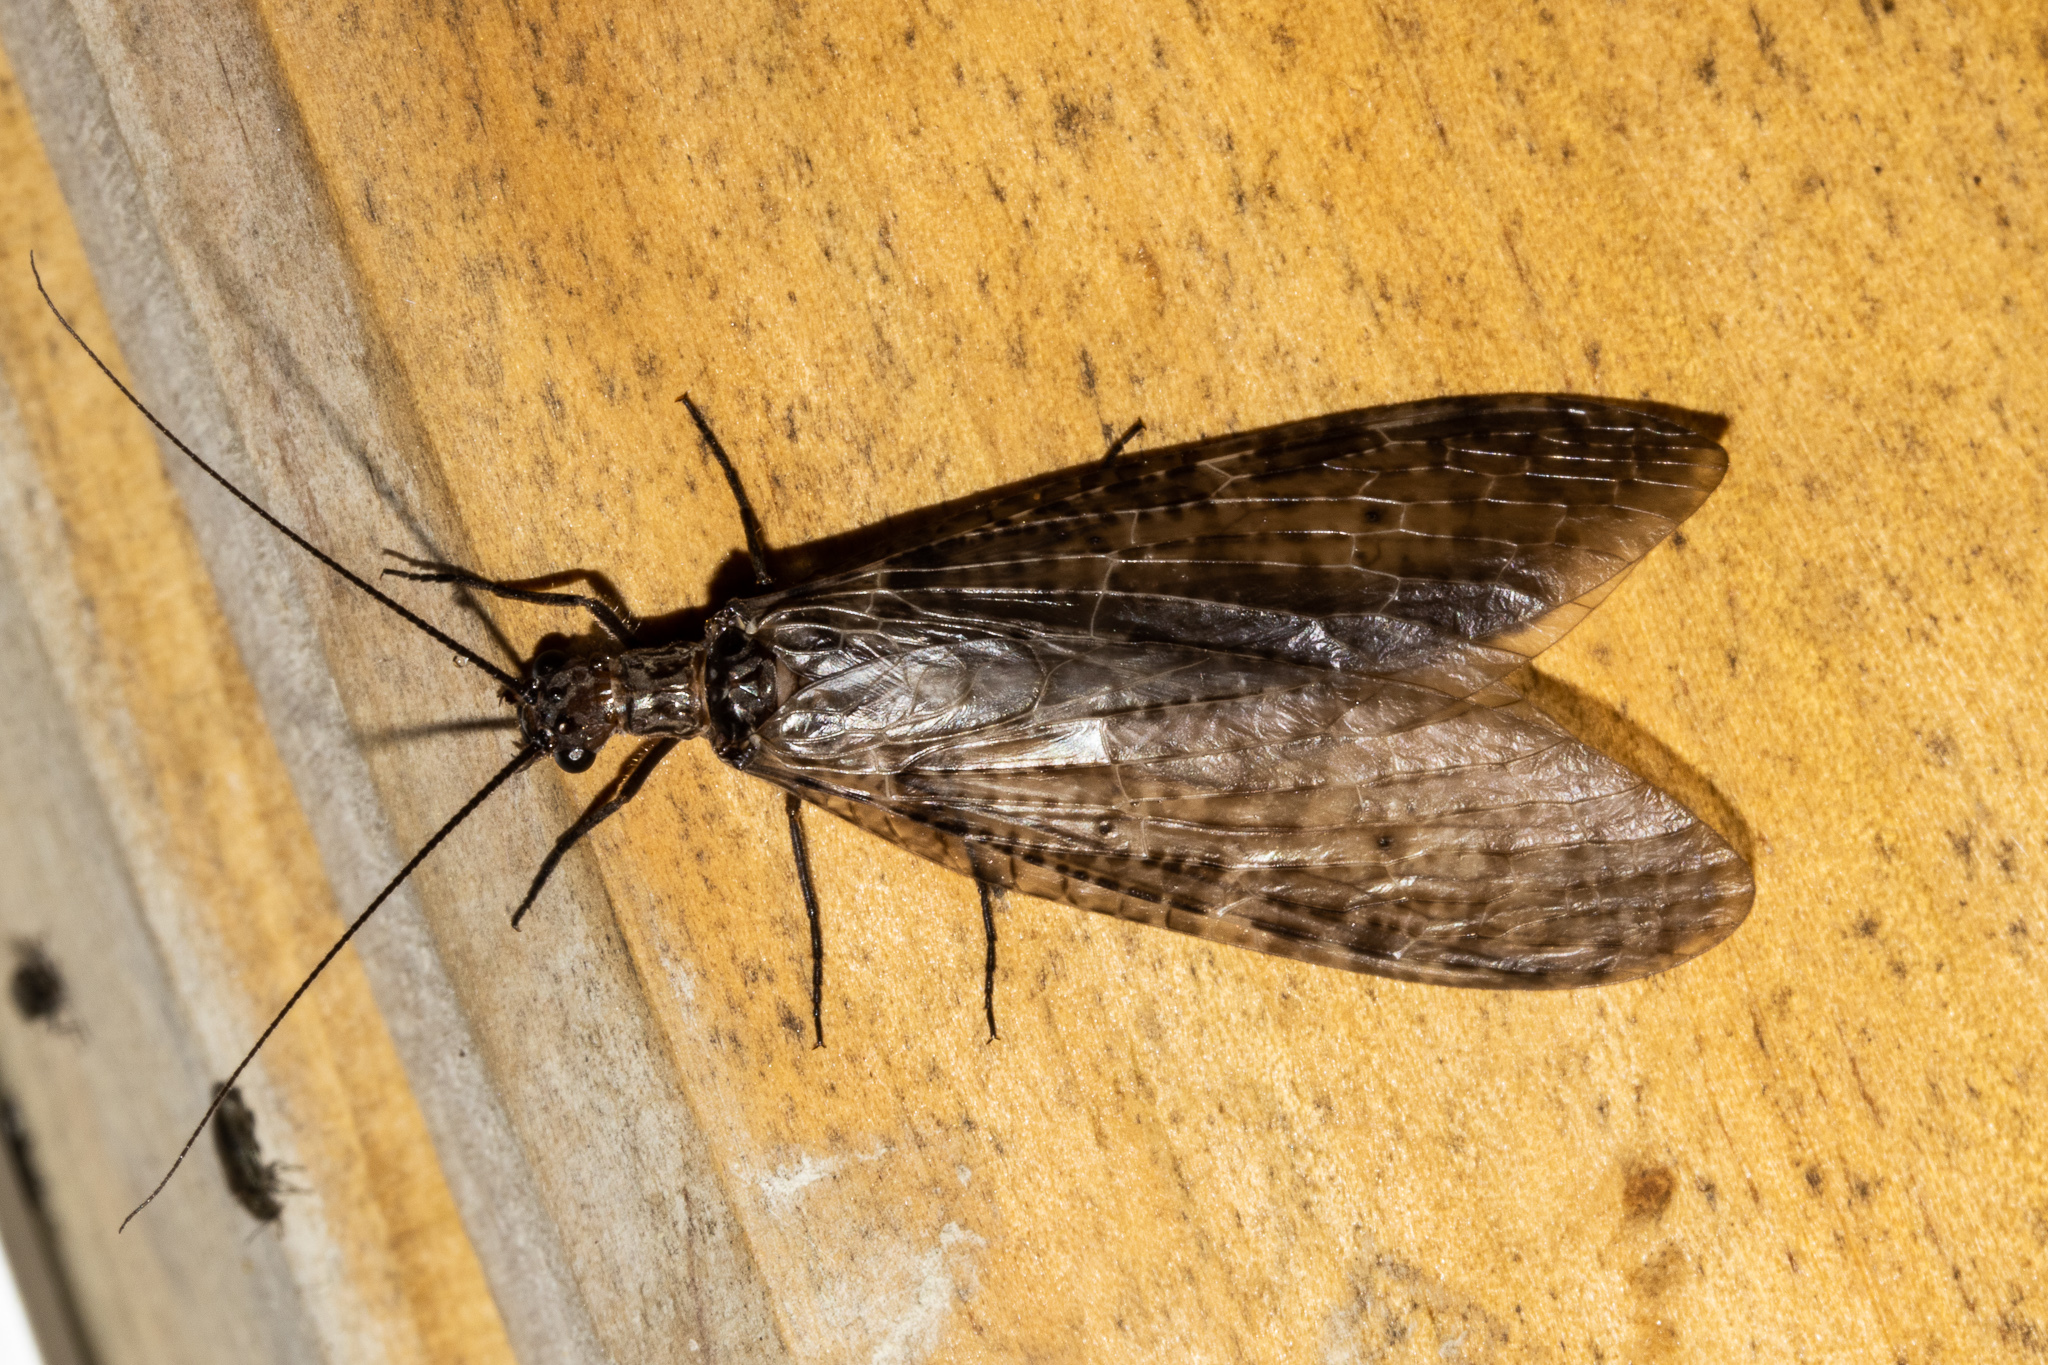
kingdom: Animalia
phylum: Arthropoda
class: Insecta
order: Megaloptera
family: Corydalidae
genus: Archichauliodes
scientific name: Archichauliodes diversus
